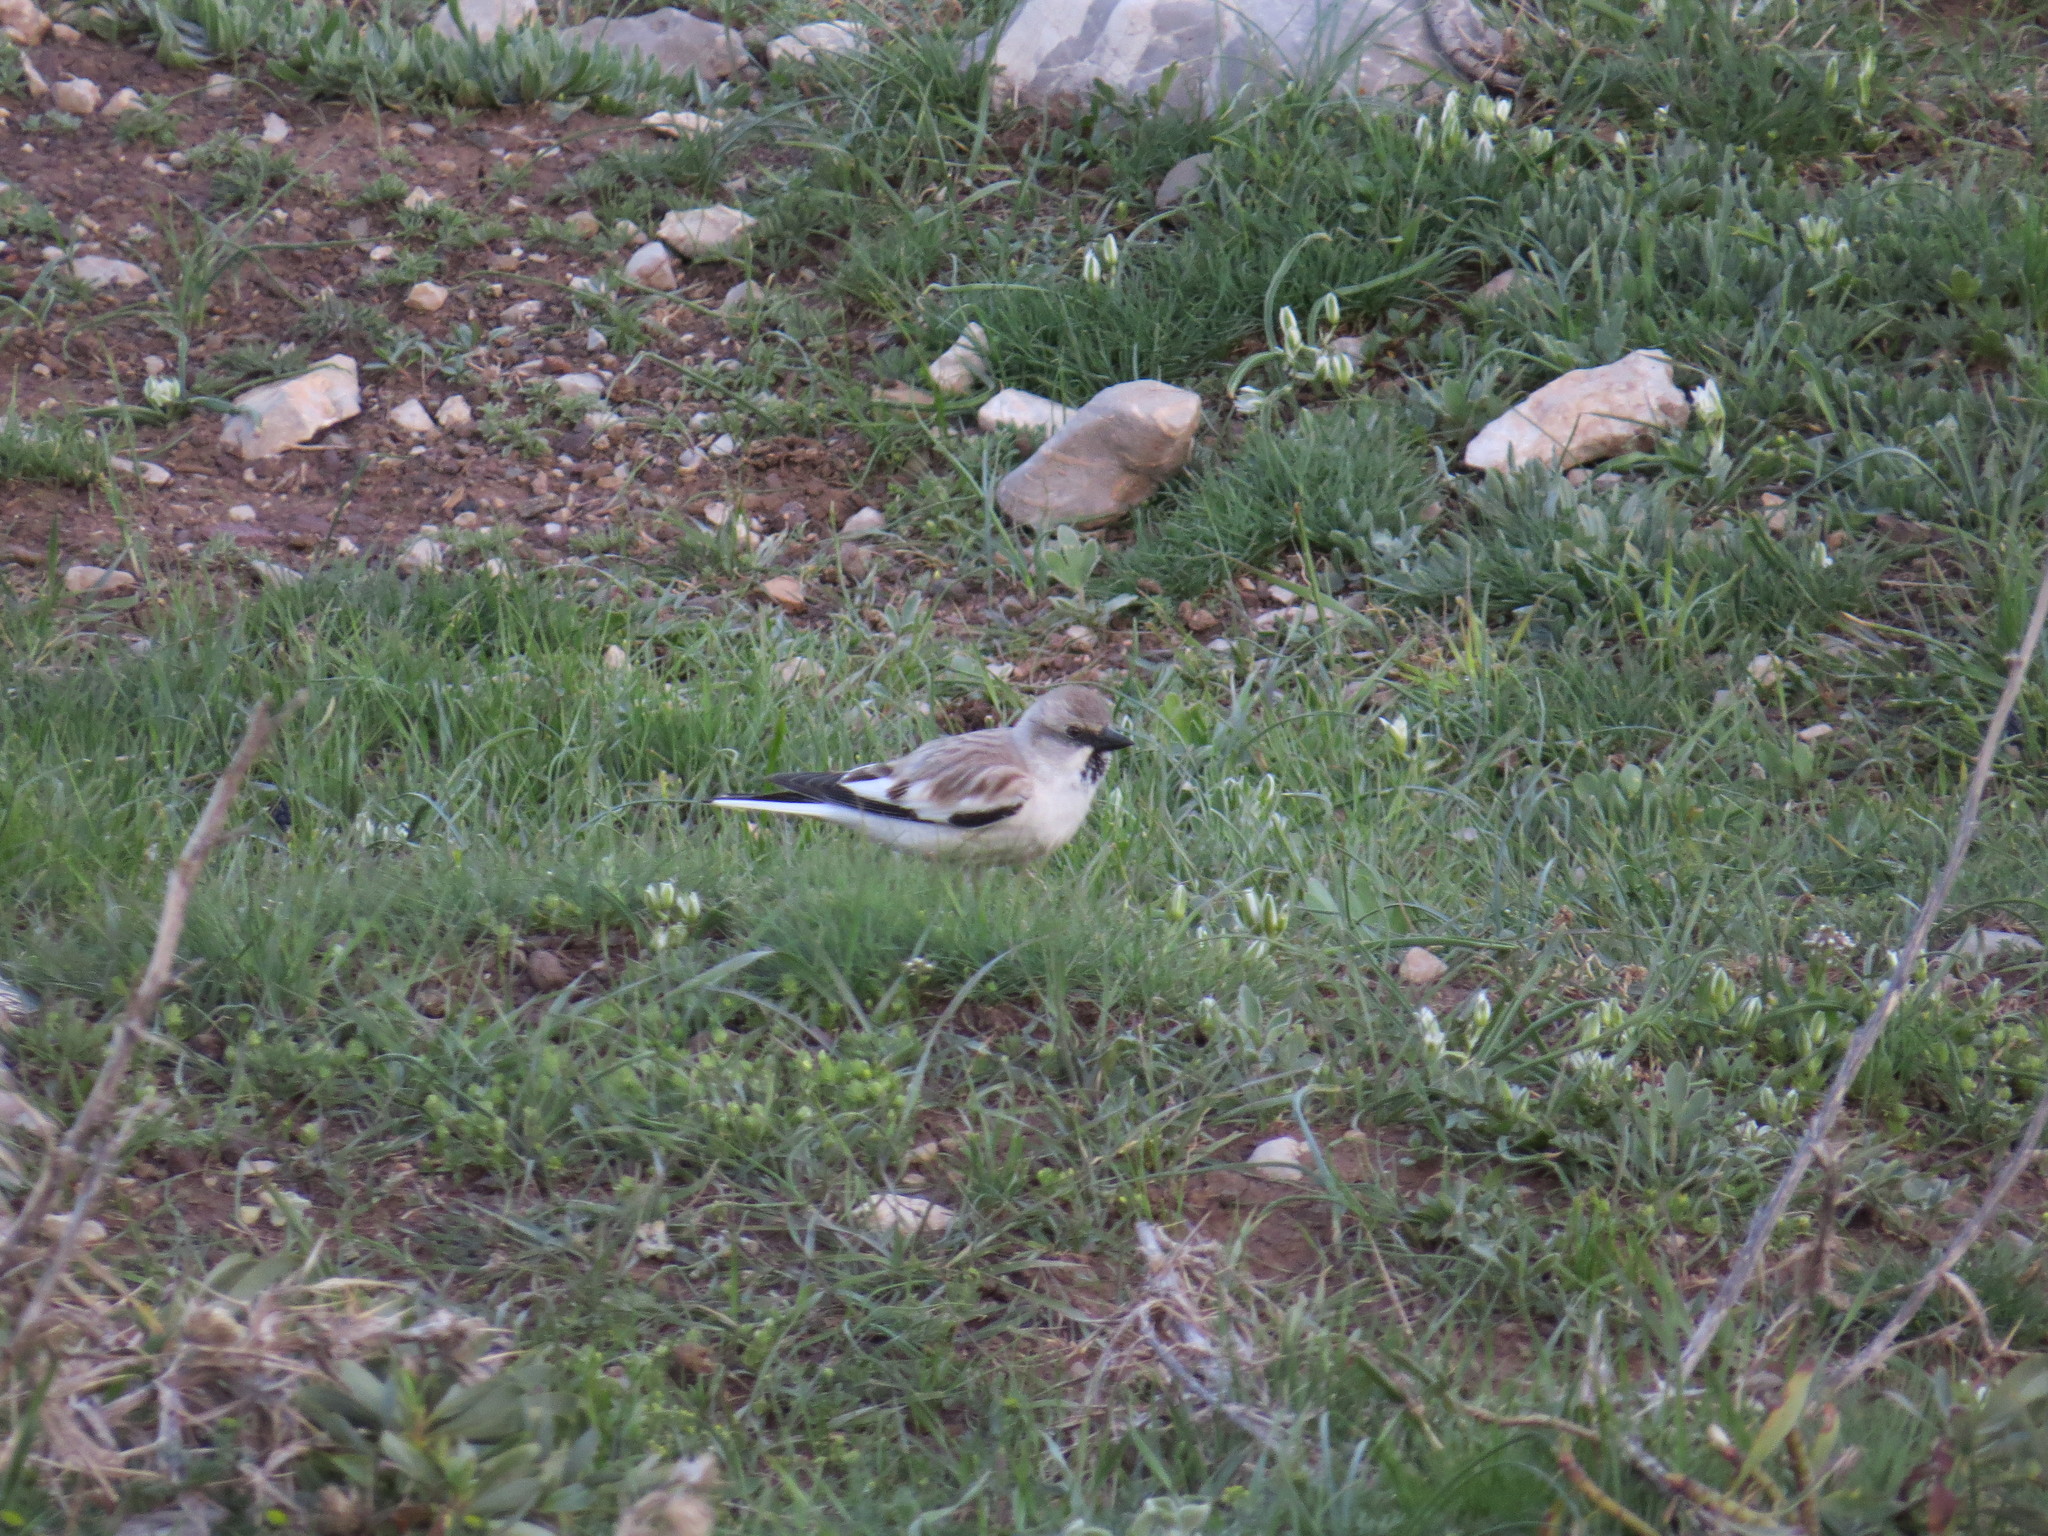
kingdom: Animalia
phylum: Chordata
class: Aves
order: Passeriformes
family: Passeridae
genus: Montifringilla
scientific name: Montifringilla nivalis
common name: White-winged snowfinch
